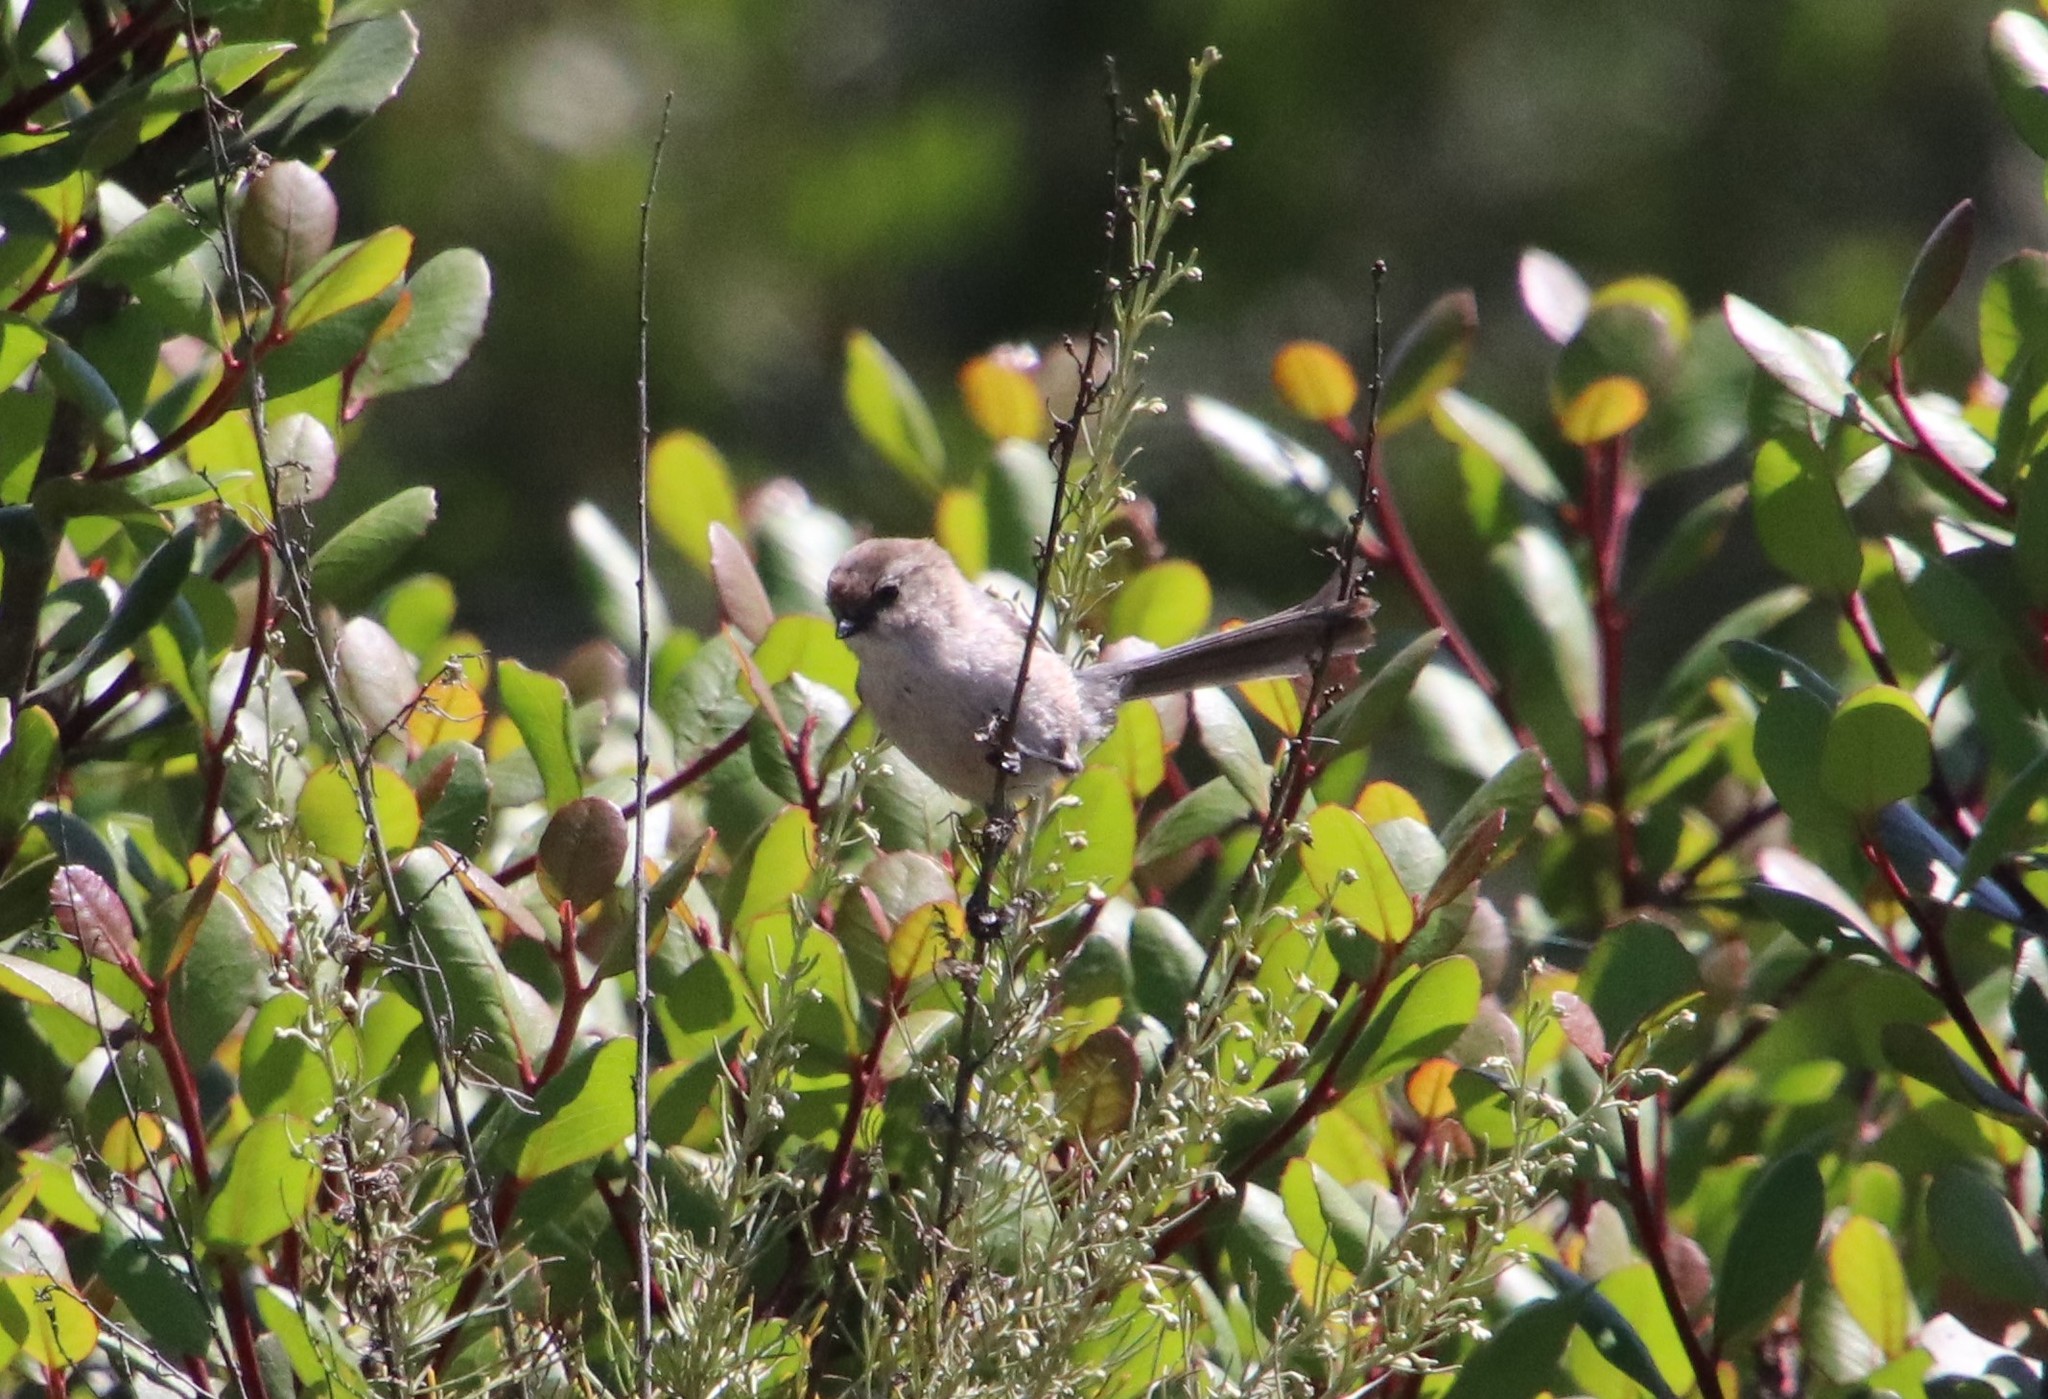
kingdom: Animalia
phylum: Chordata
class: Aves
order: Passeriformes
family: Aegithalidae
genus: Psaltriparus
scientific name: Psaltriparus minimus
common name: American bushtit
